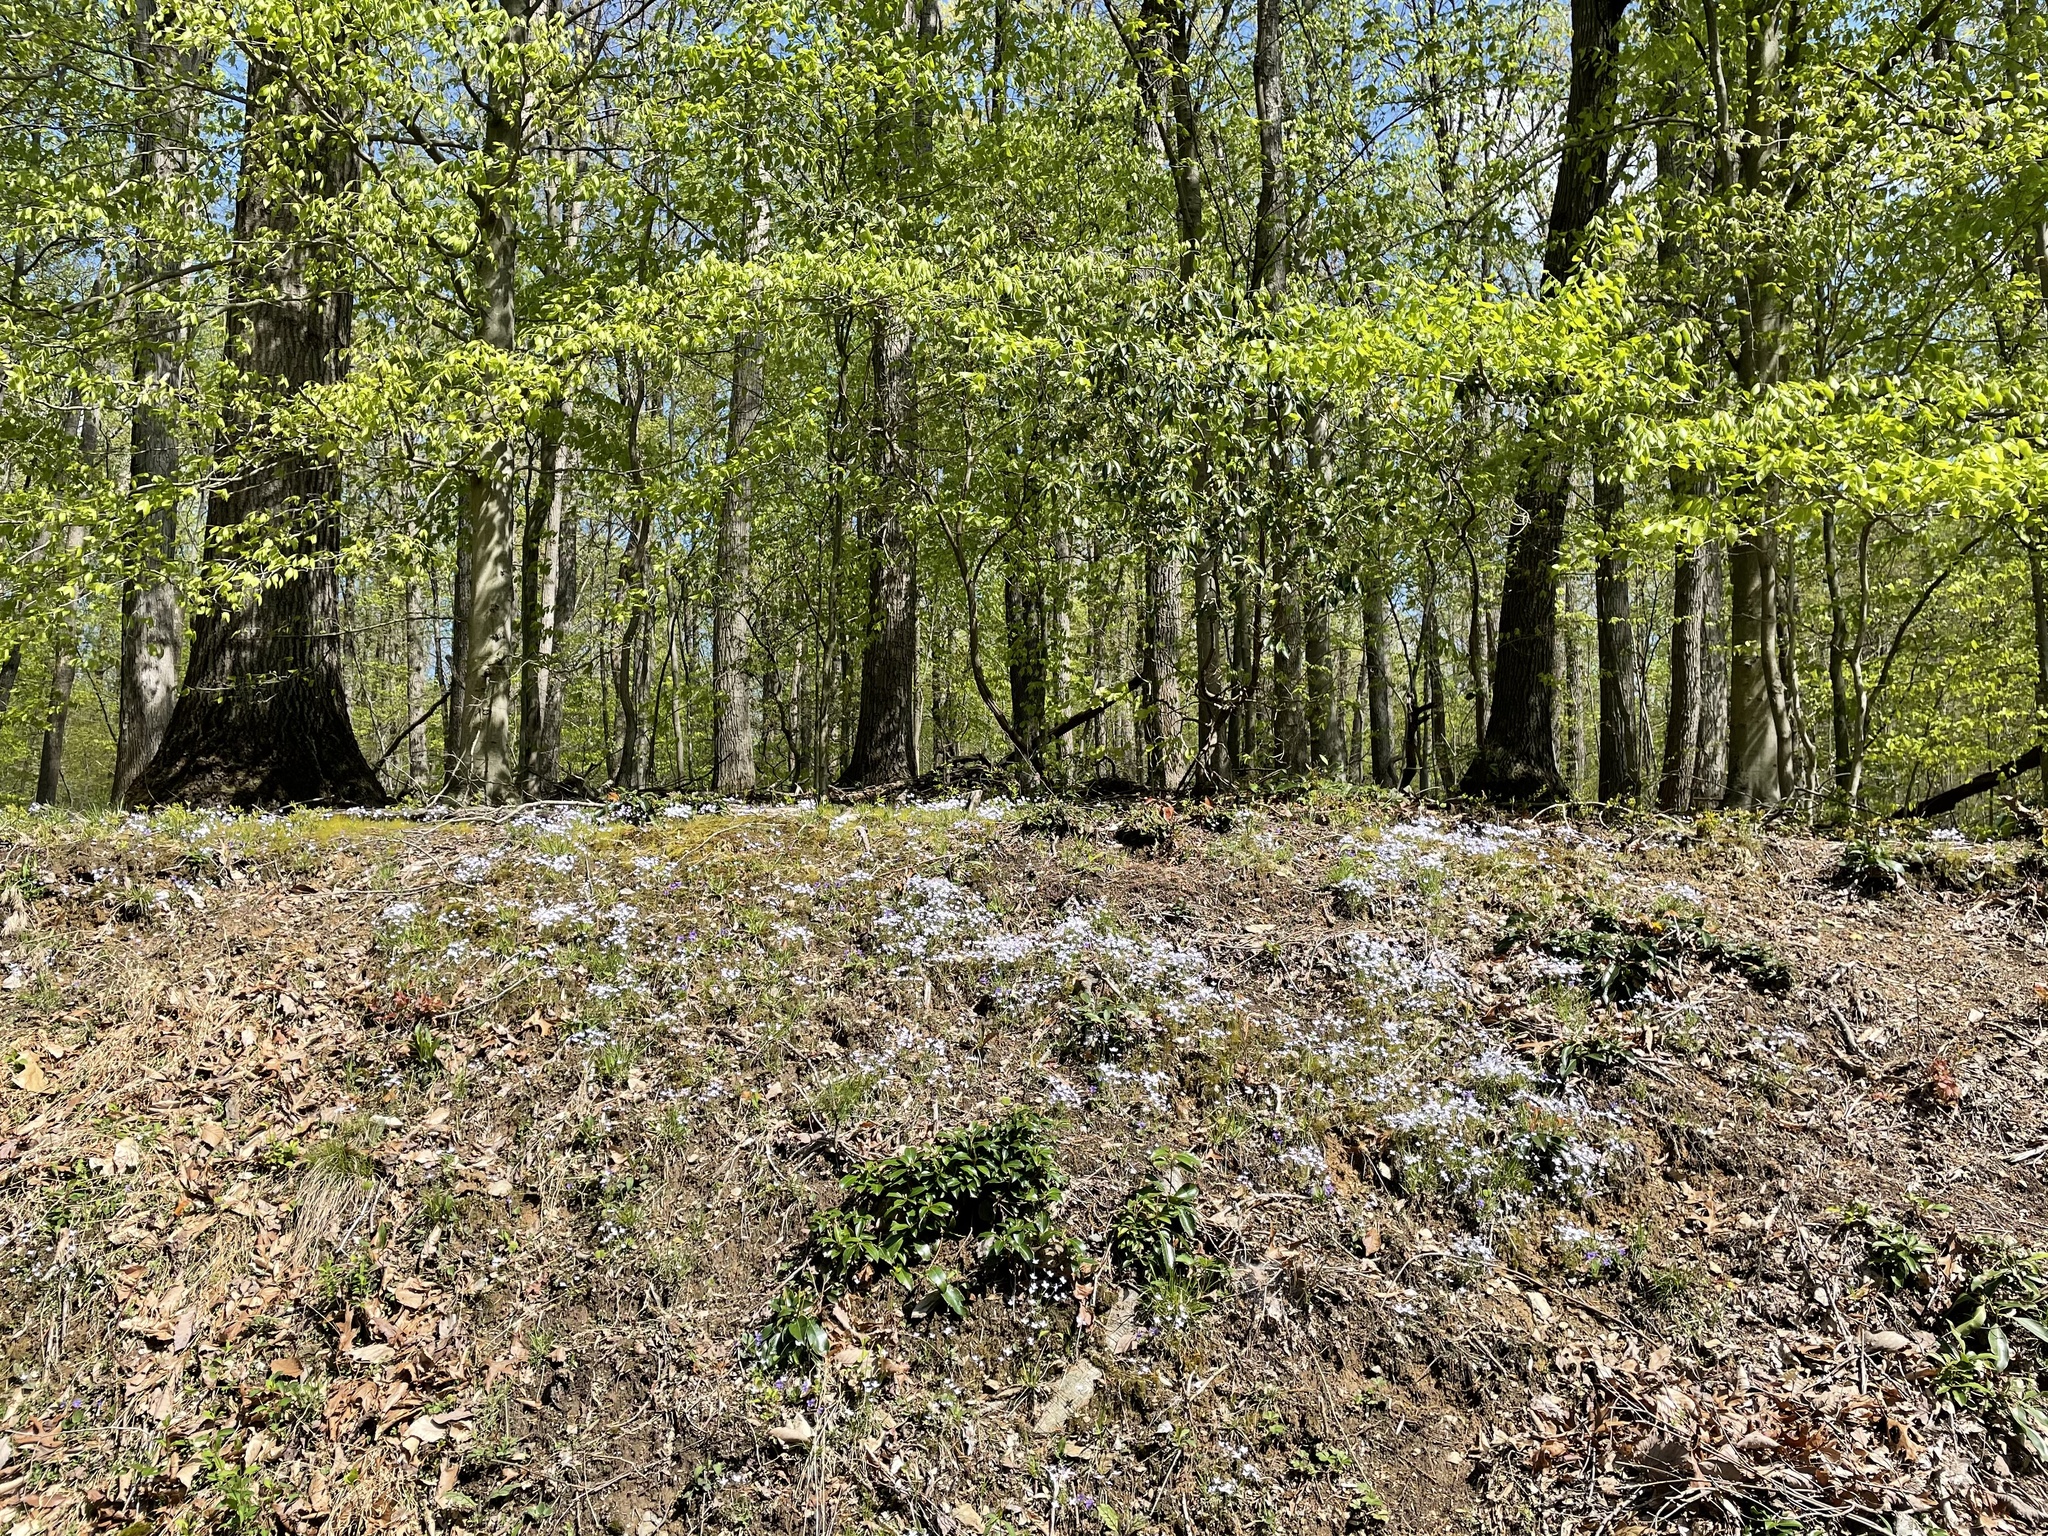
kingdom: Plantae
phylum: Tracheophyta
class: Magnoliopsida
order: Gentianales
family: Rubiaceae
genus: Houstonia
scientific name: Houstonia caerulea
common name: Bluets
